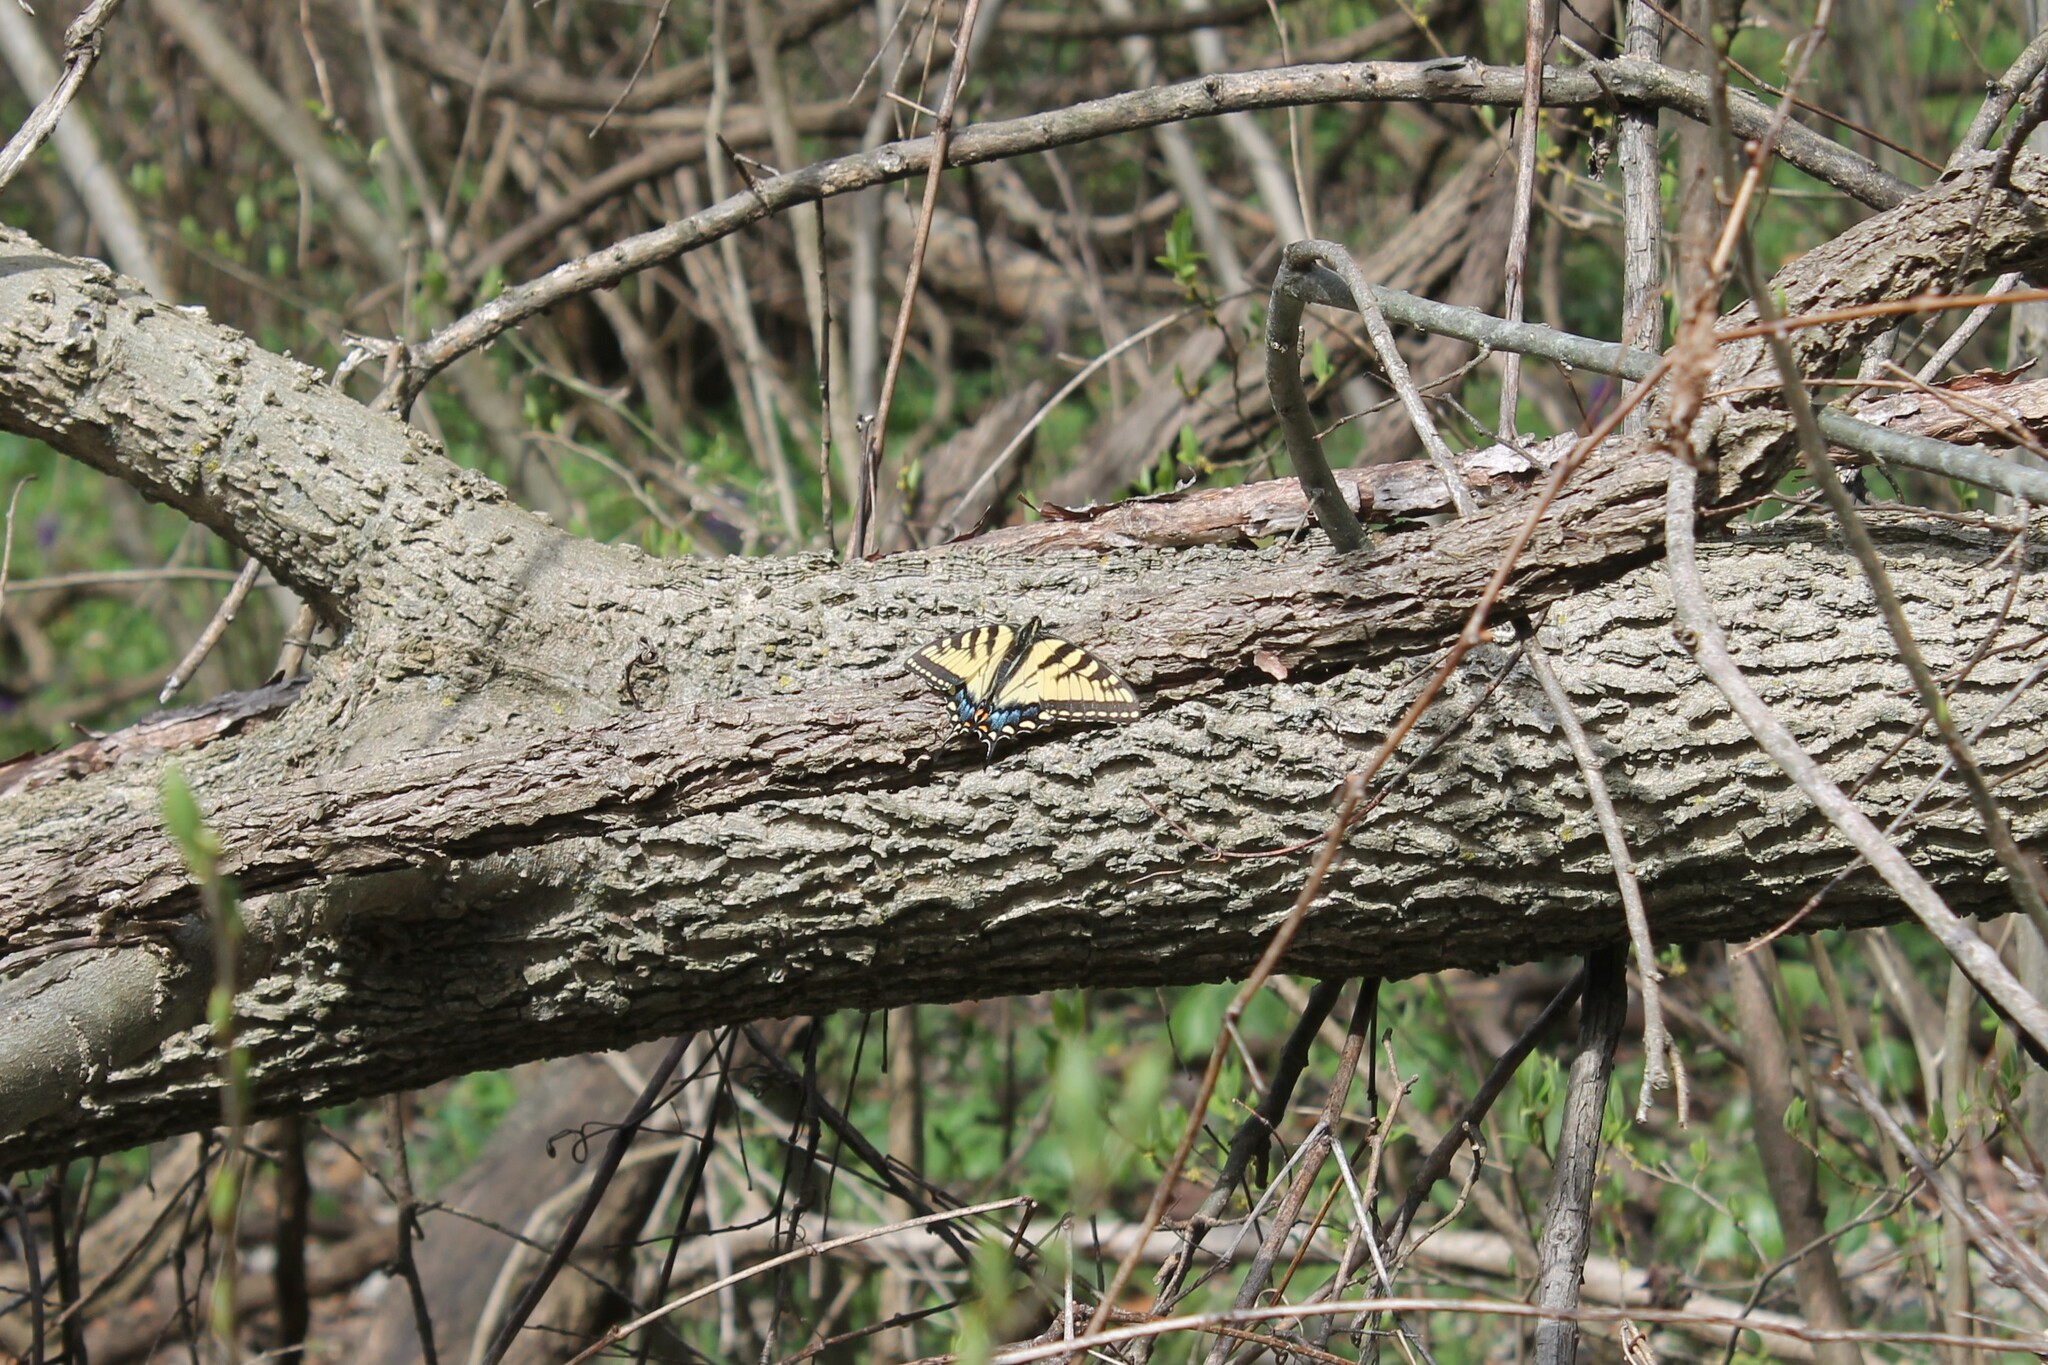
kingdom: Animalia
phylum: Arthropoda
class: Insecta
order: Lepidoptera
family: Papilionidae
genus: Papilio
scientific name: Papilio glaucus
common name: Tiger swallowtail
